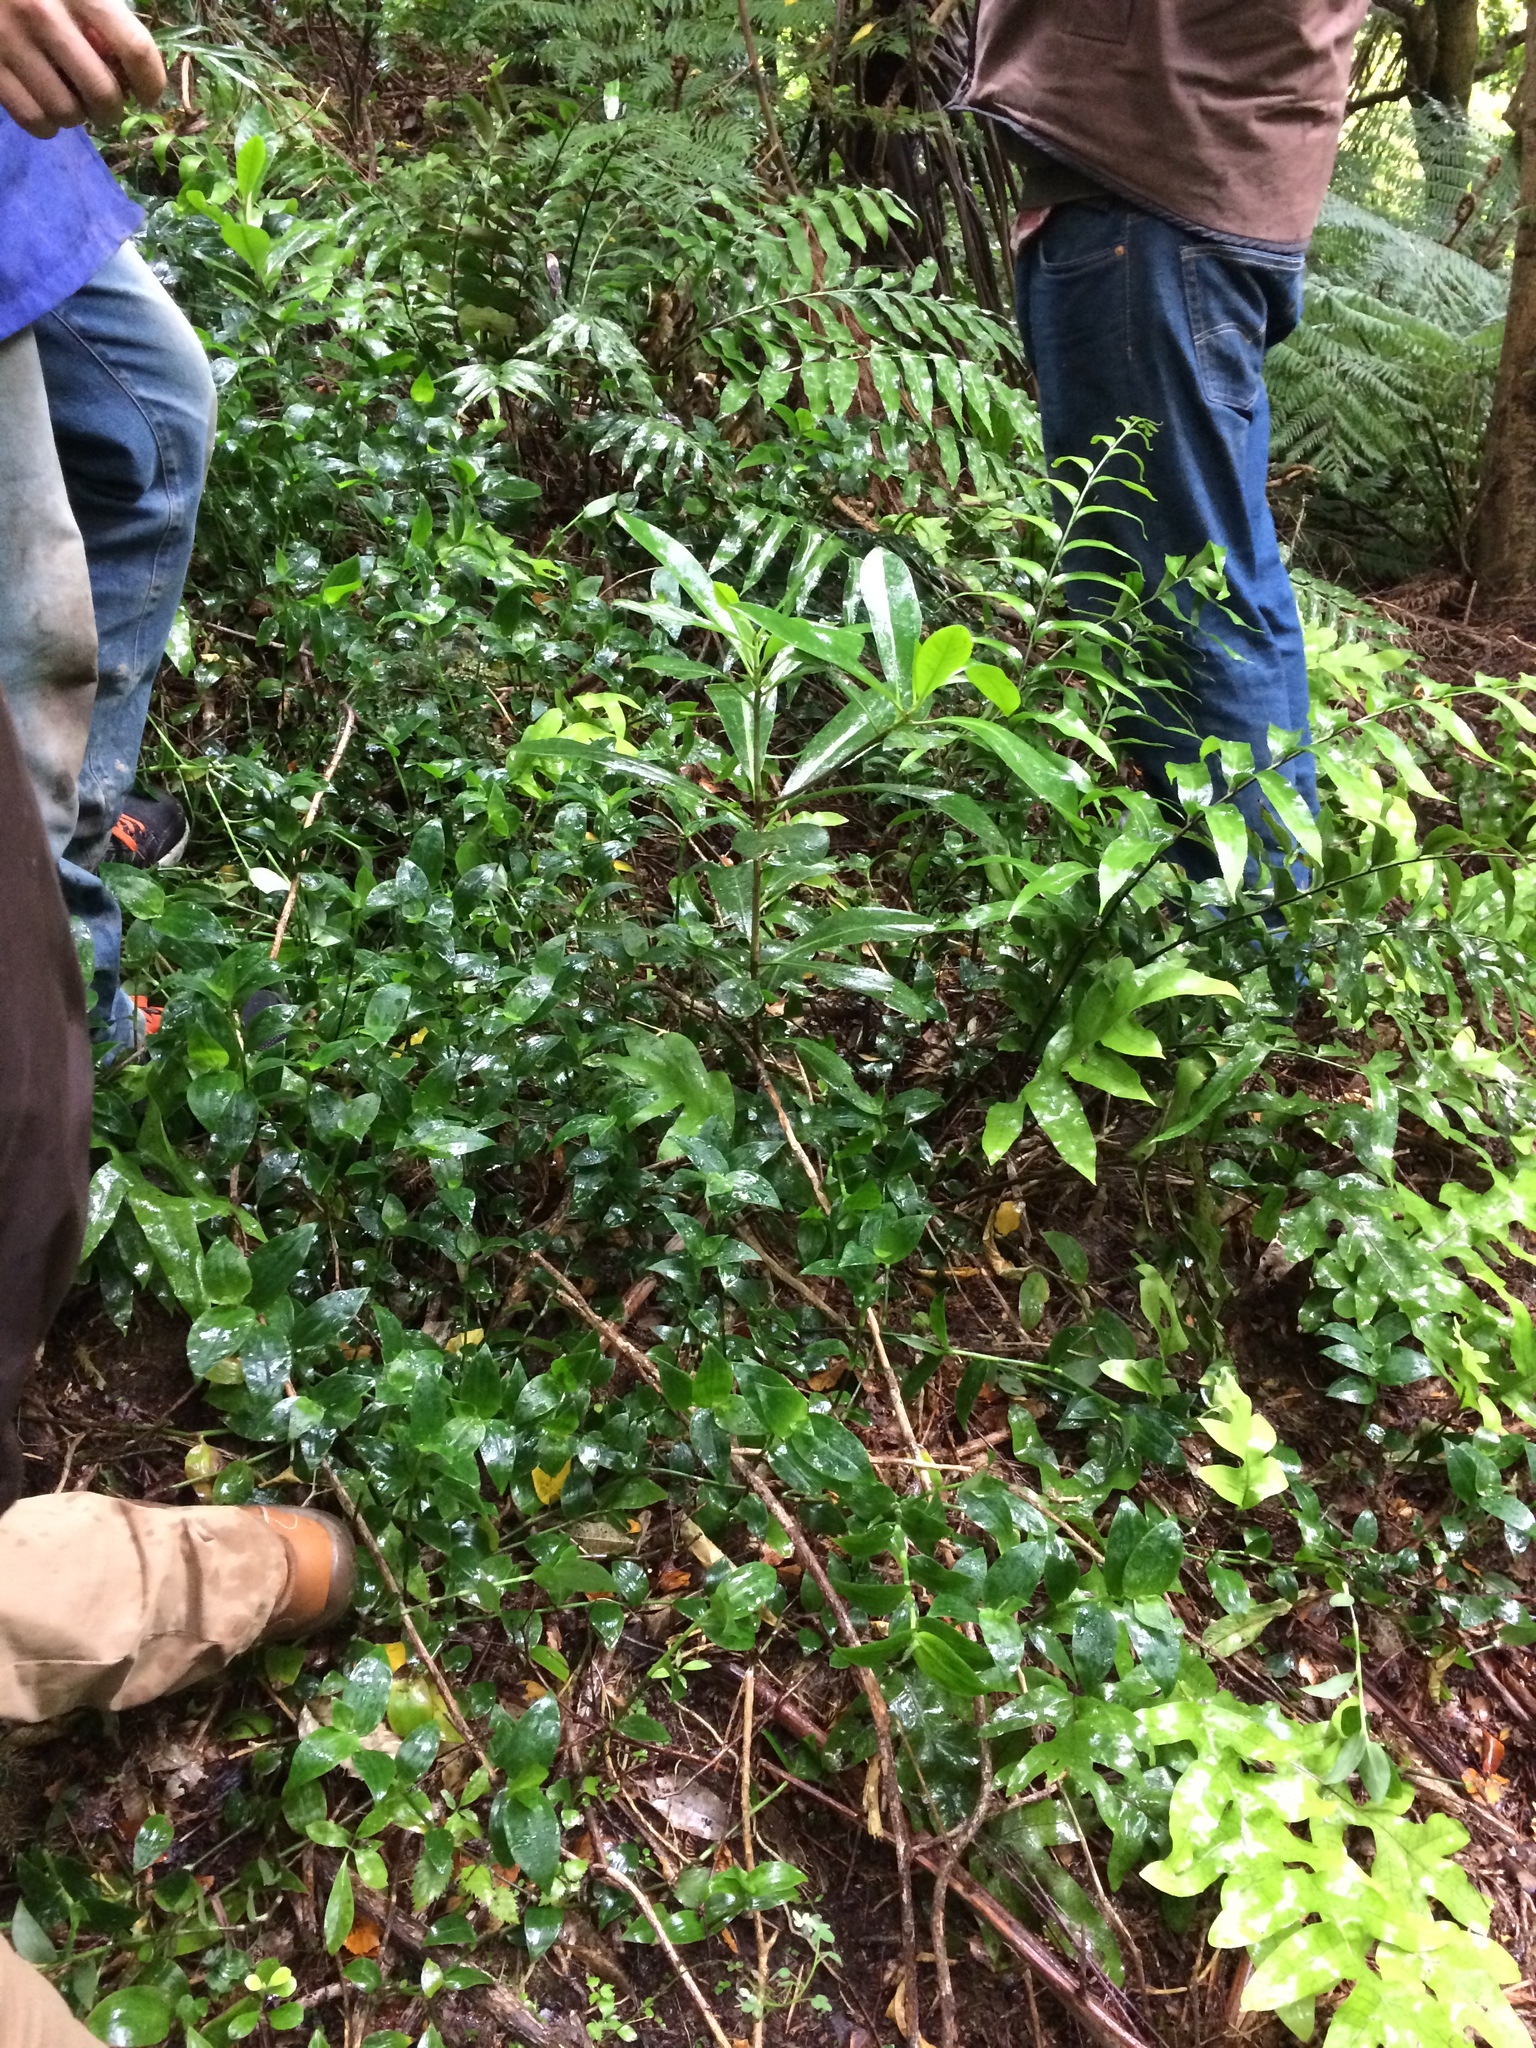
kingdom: Plantae
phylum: Tracheophyta
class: Liliopsida
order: Commelinales
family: Commelinaceae
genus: Tradescantia
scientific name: Tradescantia fluminensis
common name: Wandering-jew
